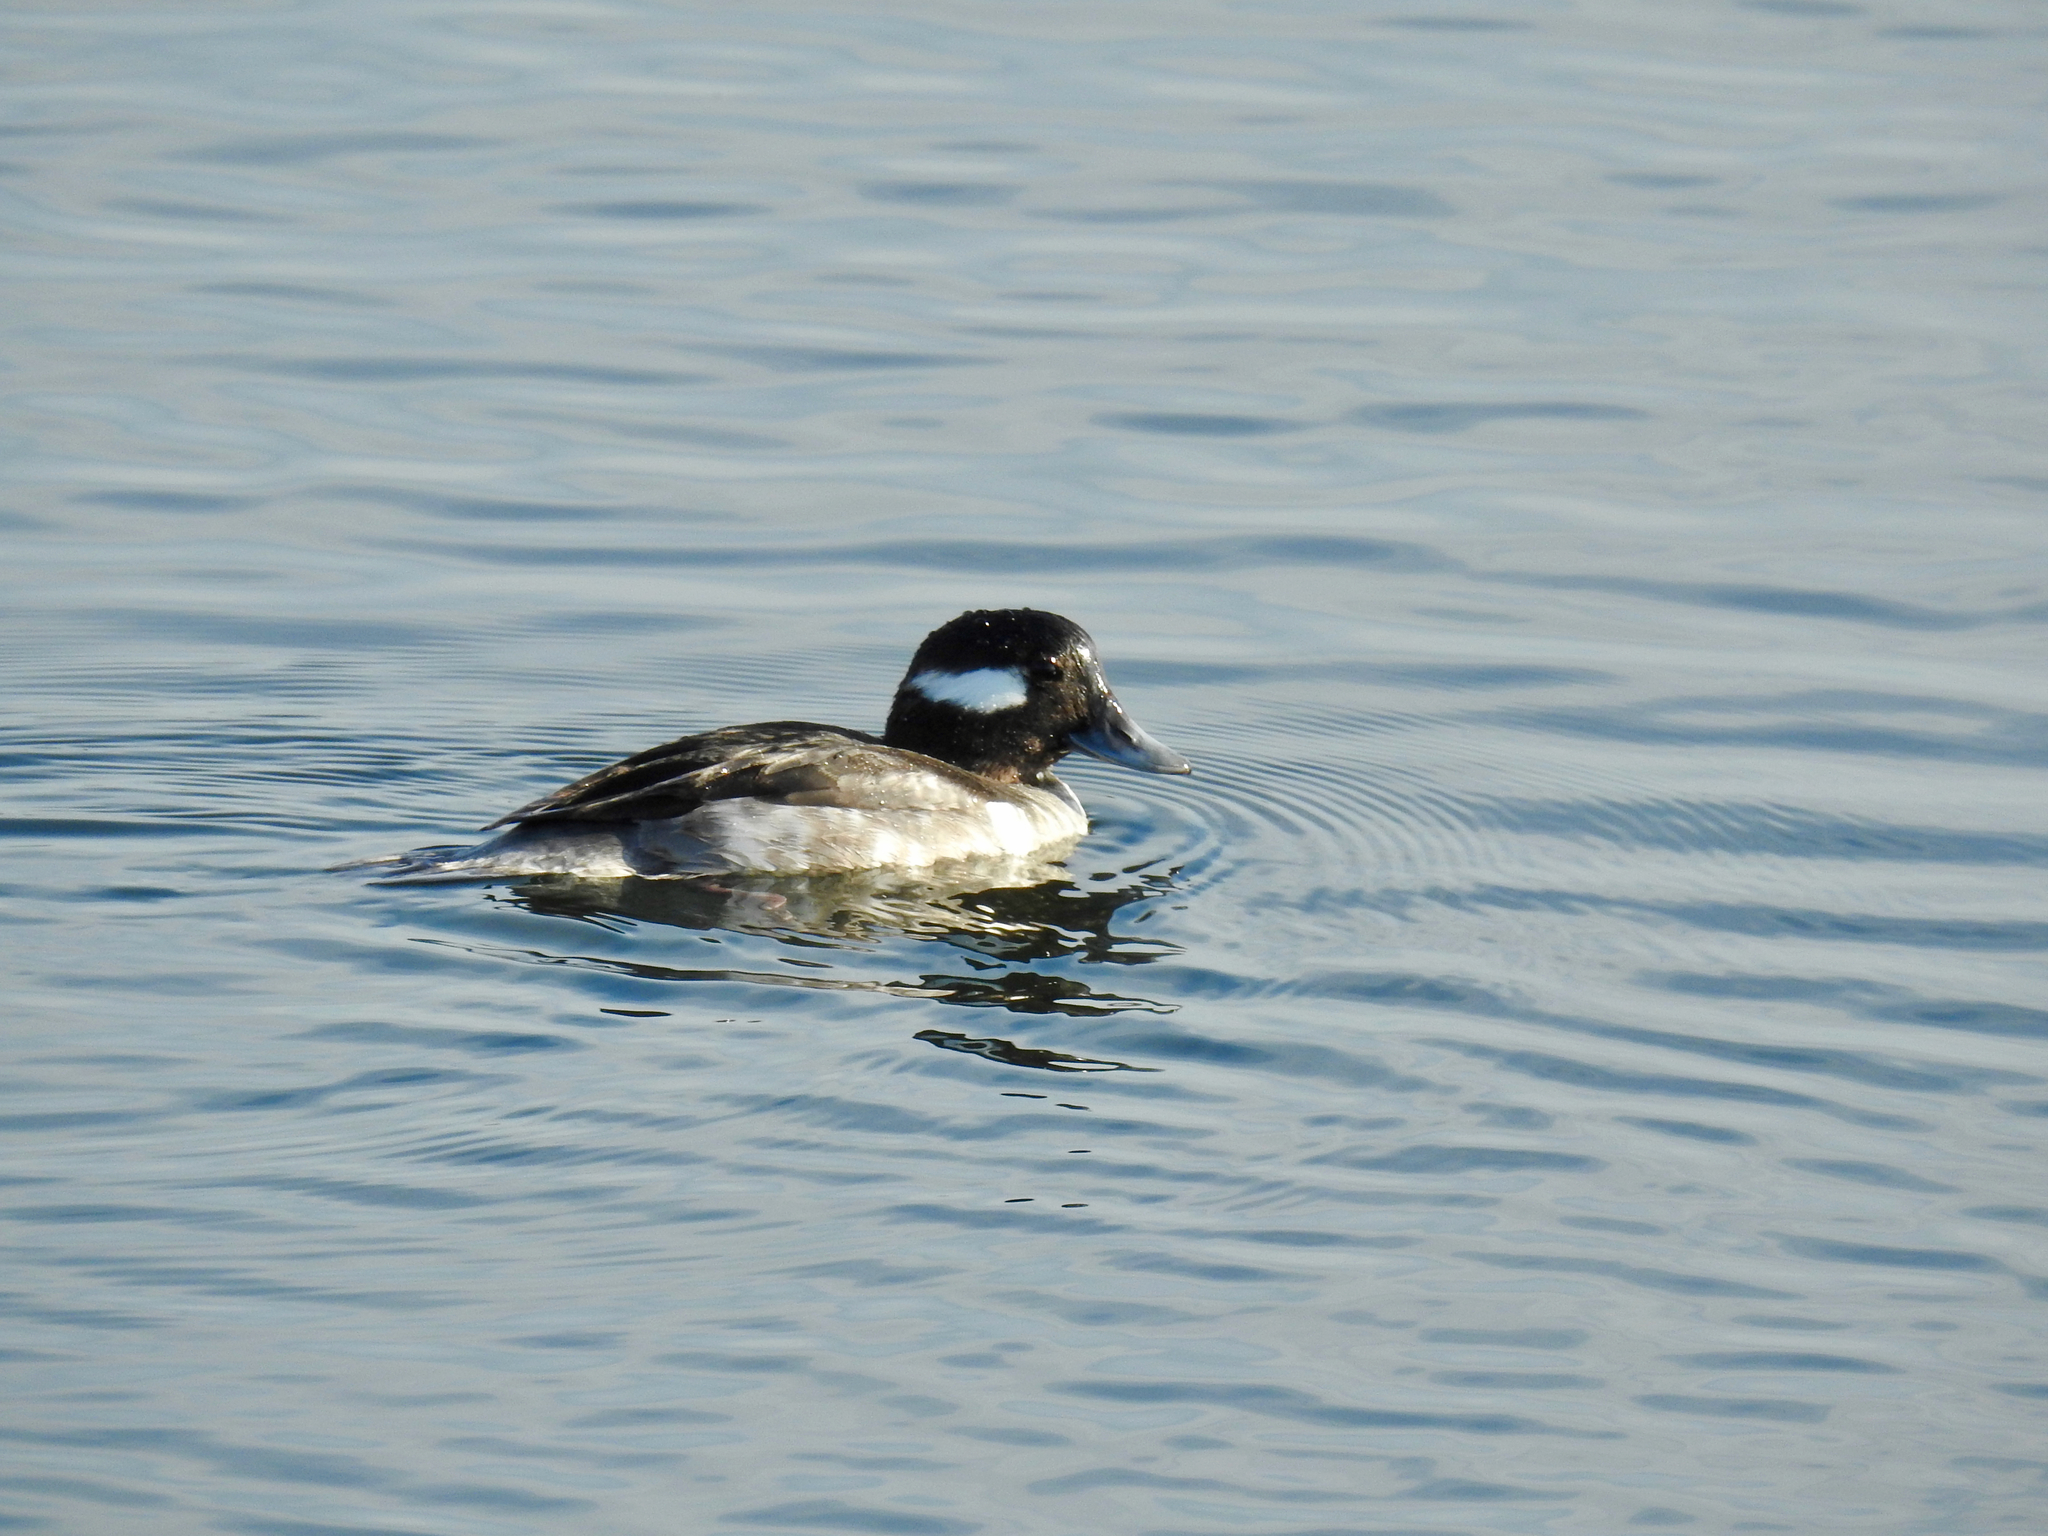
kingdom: Animalia
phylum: Chordata
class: Aves
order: Anseriformes
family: Anatidae
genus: Bucephala
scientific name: Bucephala albeola
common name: Bufflehead
